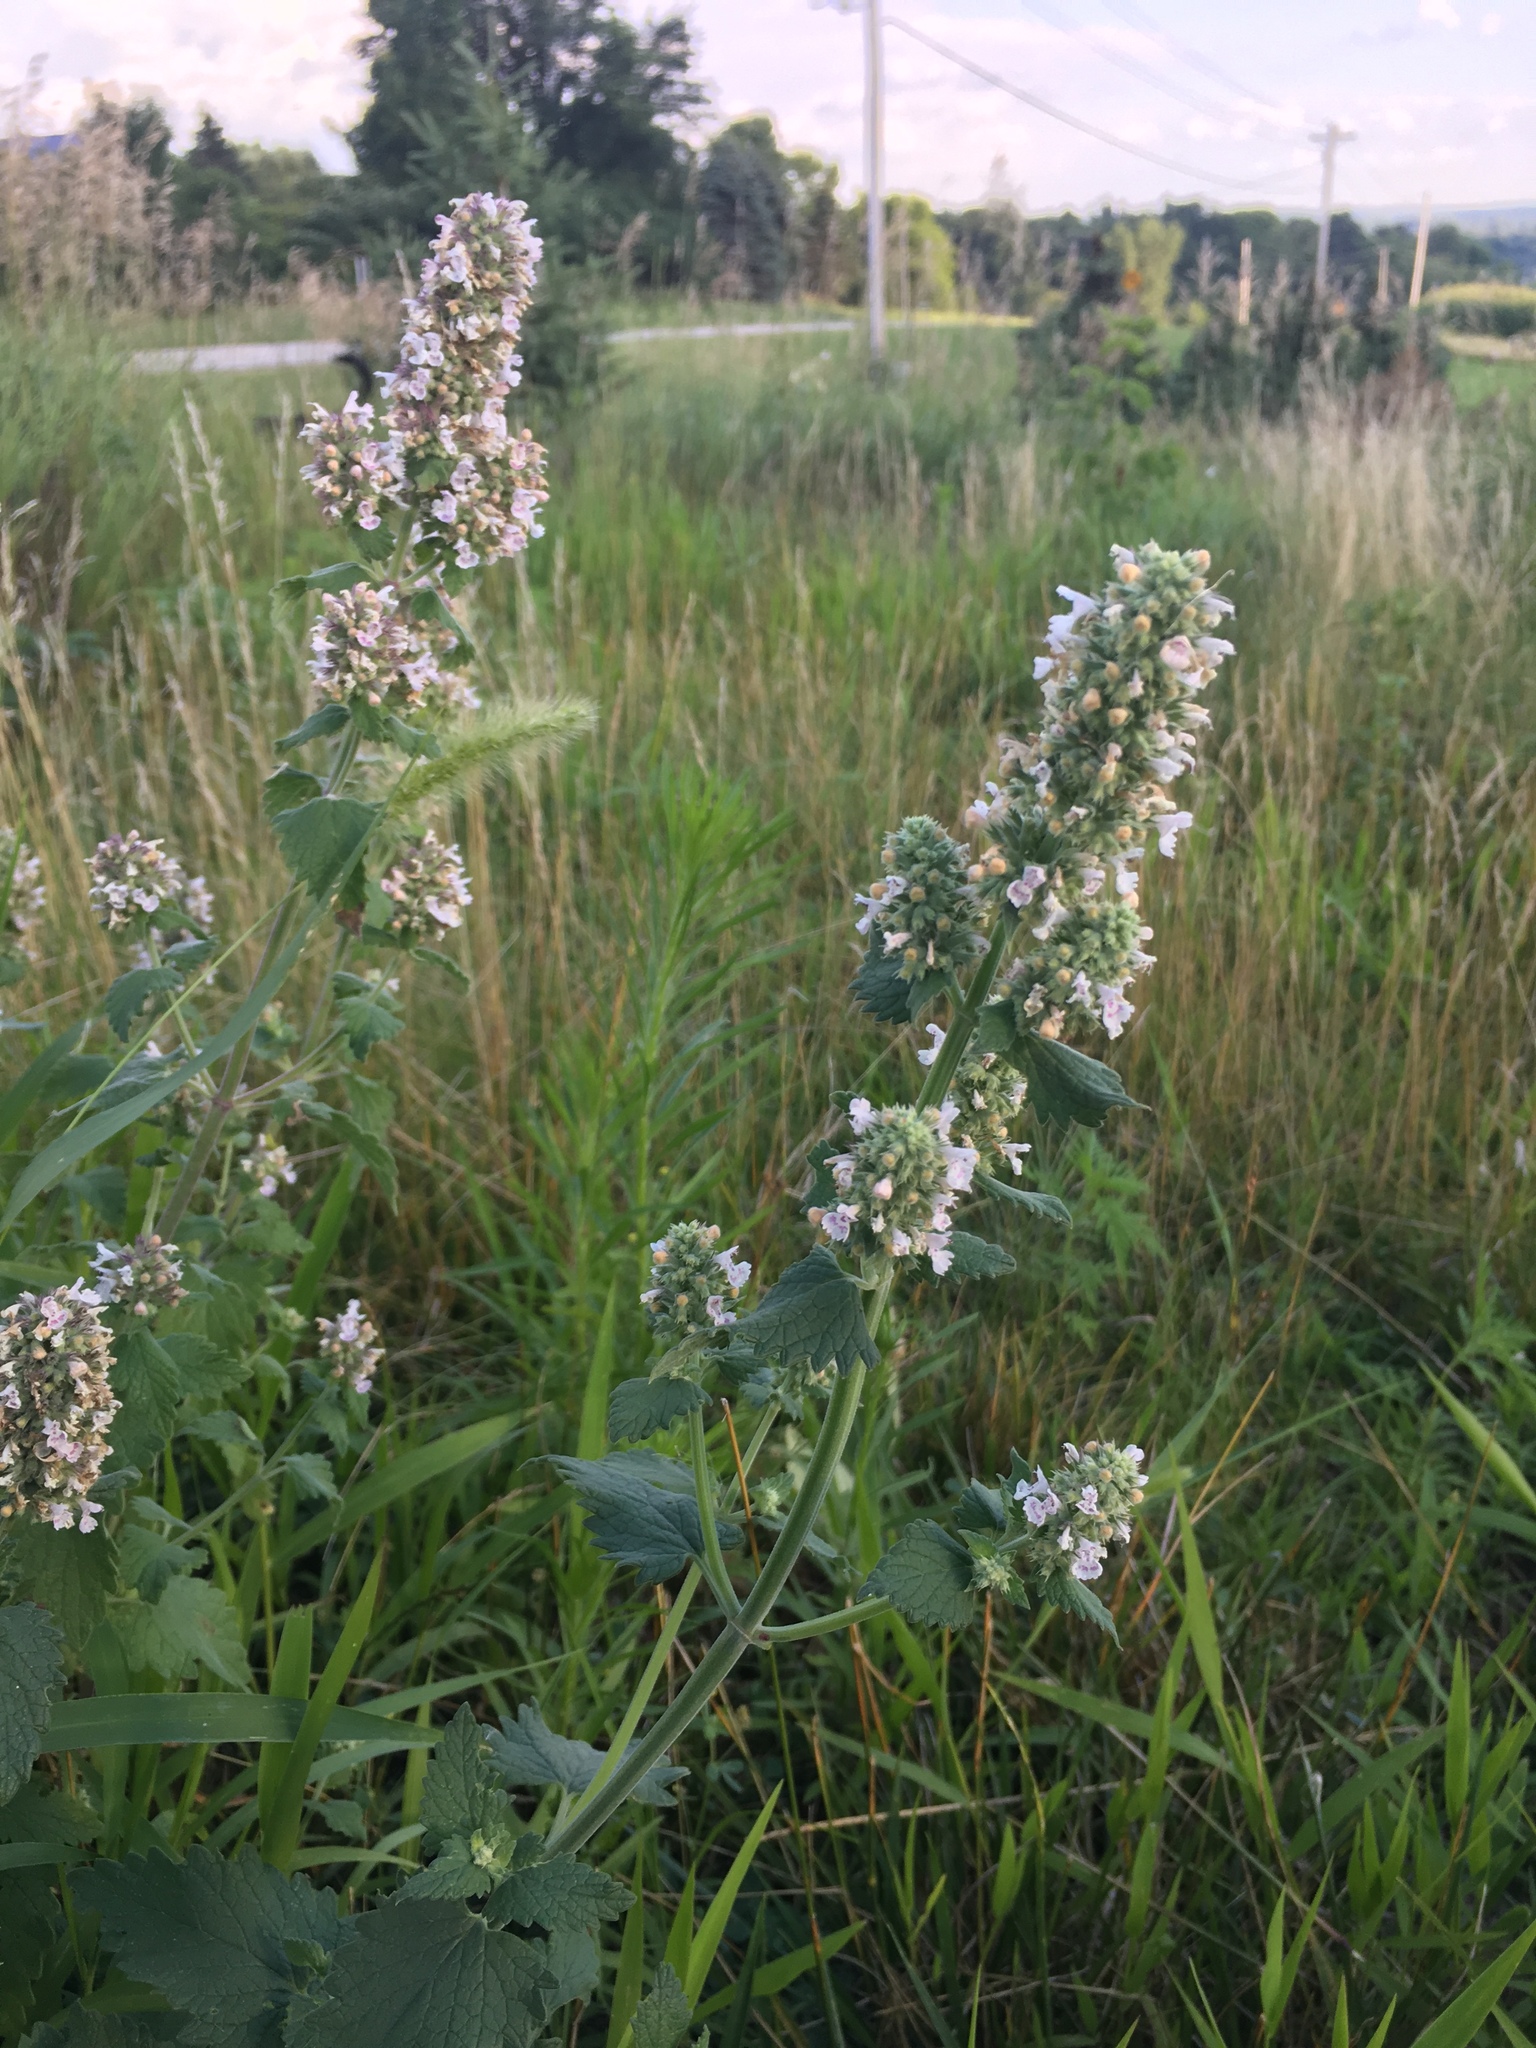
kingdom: Plantae
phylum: Tracheophyta
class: Magnoliopsida
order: Lamiales
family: Lamiaceae
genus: Nepeta
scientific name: Nepeta cataria
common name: Catnip
